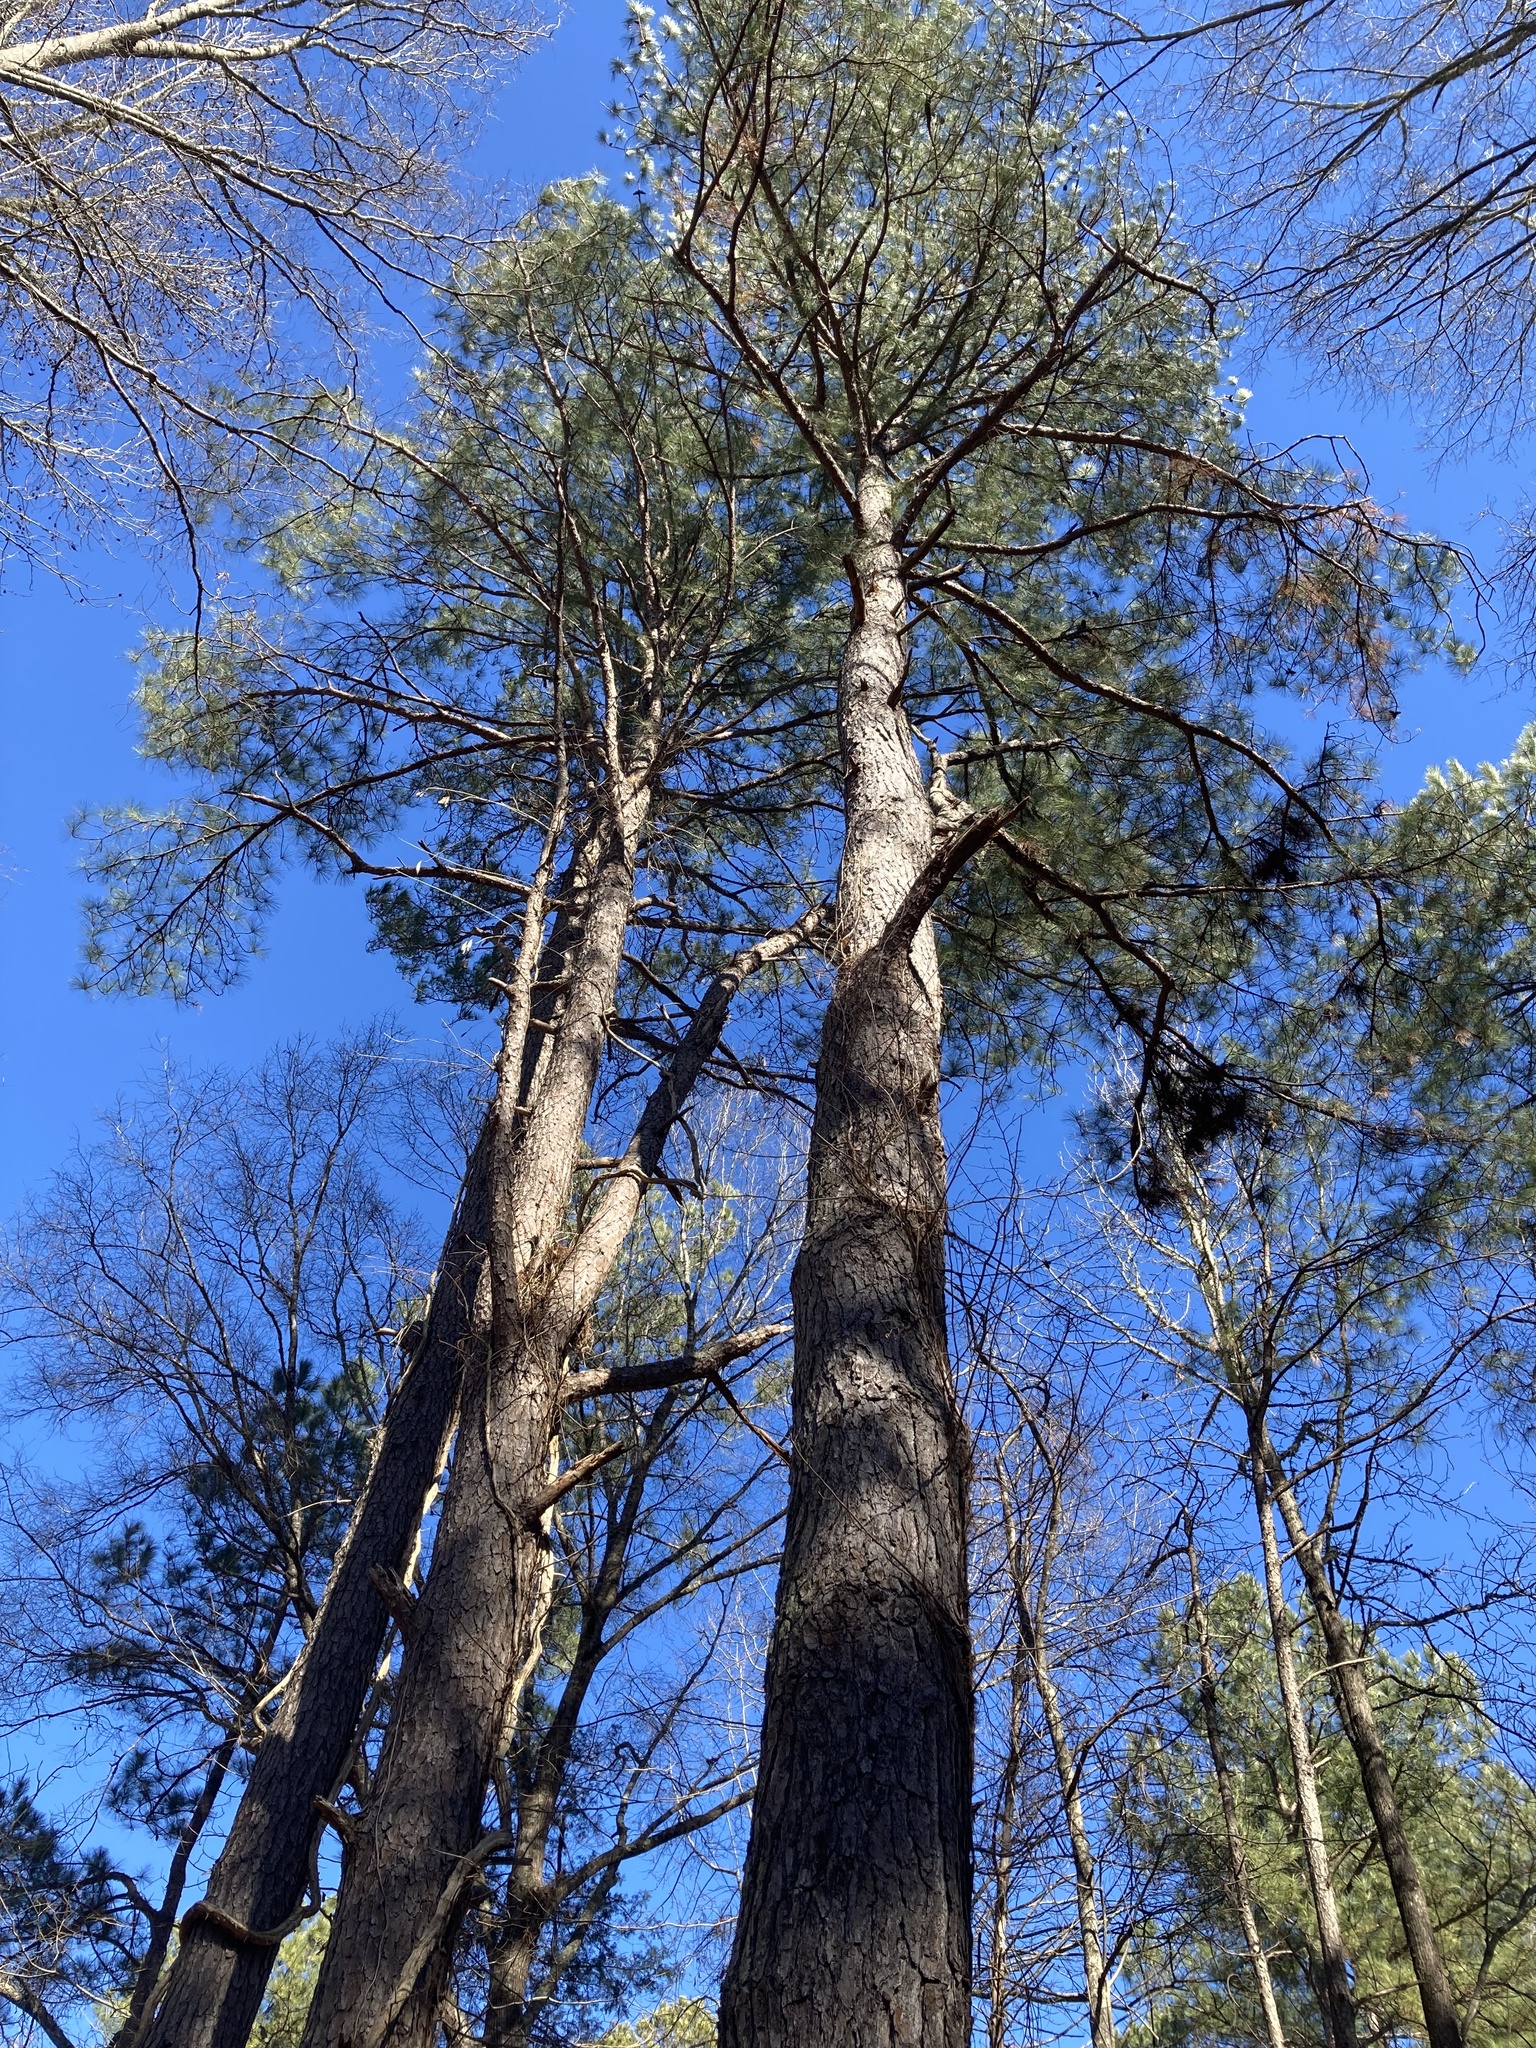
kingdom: Plantae
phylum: Tracheophyta
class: Pinopsida
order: Pinales
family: Pinaceae
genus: Pinus
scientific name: Pinus taeda
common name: Loblolly pine
